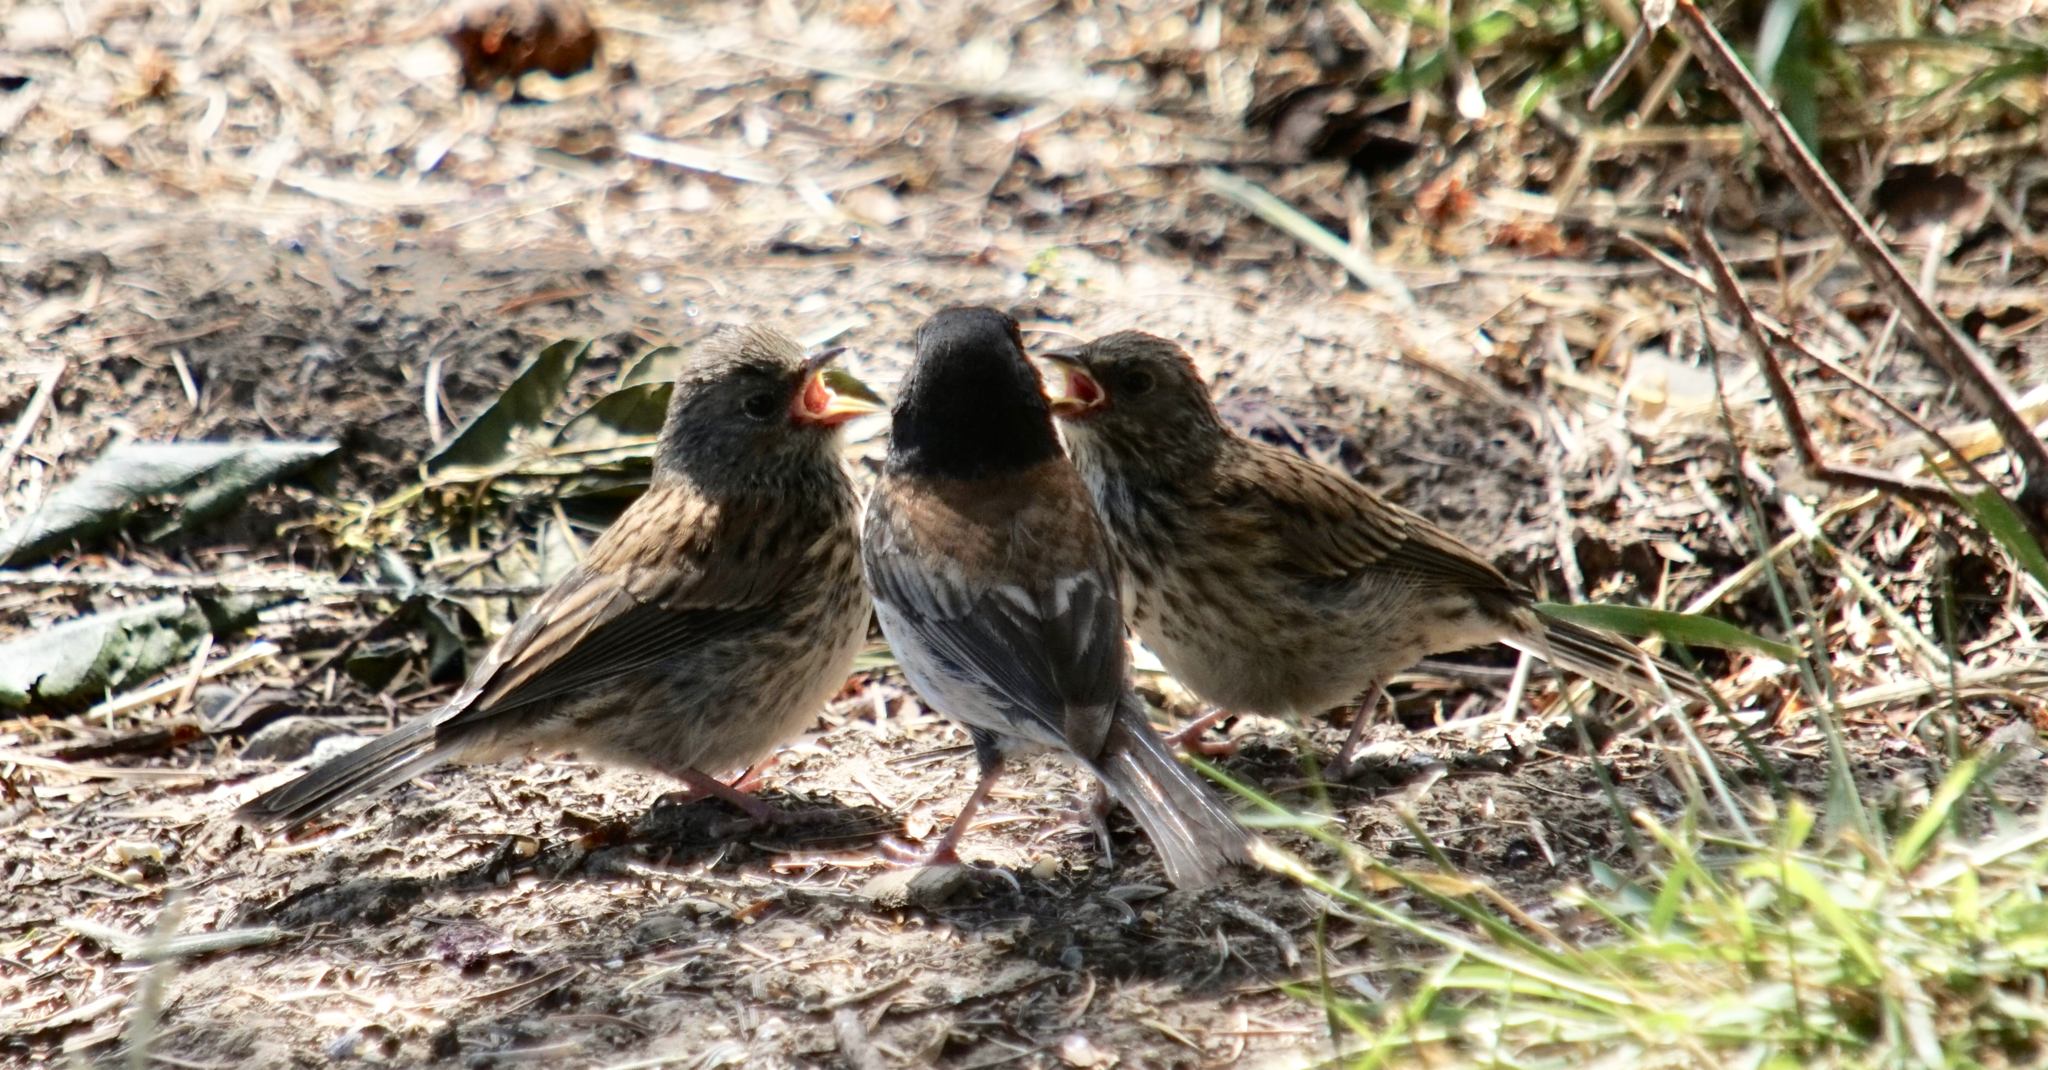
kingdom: Animalia
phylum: Chordata
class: Aves
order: Passeriformes
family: Passerellidae
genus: Junco
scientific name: Junco hyemalis
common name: Dark-eyed junco
